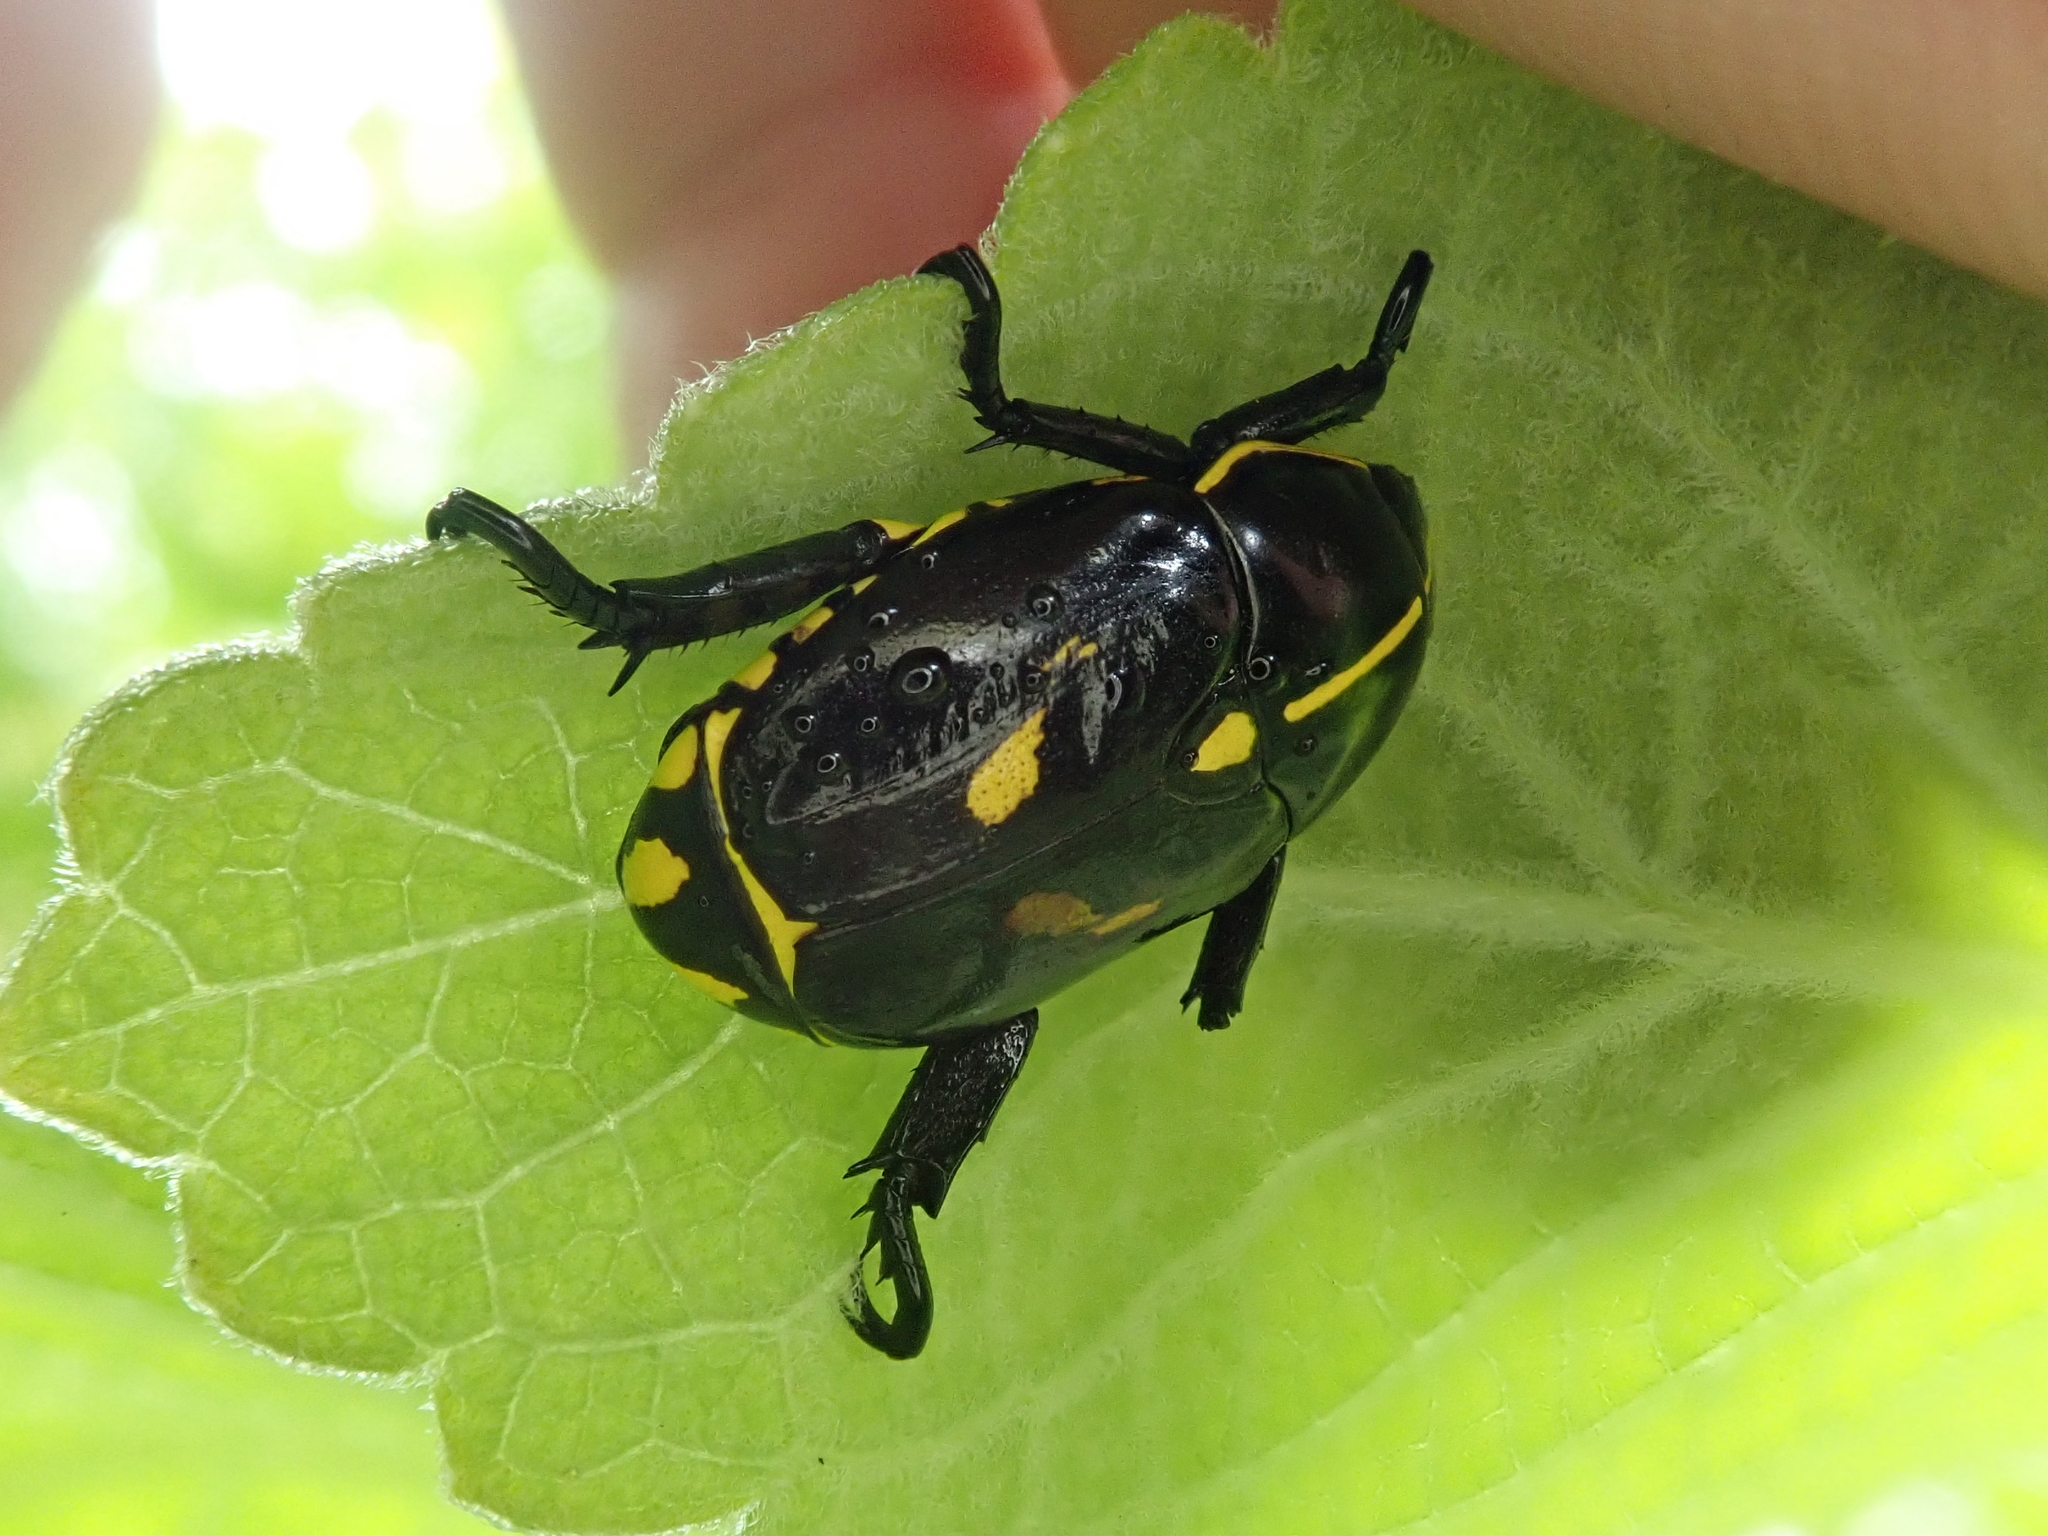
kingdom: Animalia
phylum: Arthropoda
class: Insecta
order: Coleoptera
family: Scarabaeidae
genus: Rutela
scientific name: Rutela lineola
